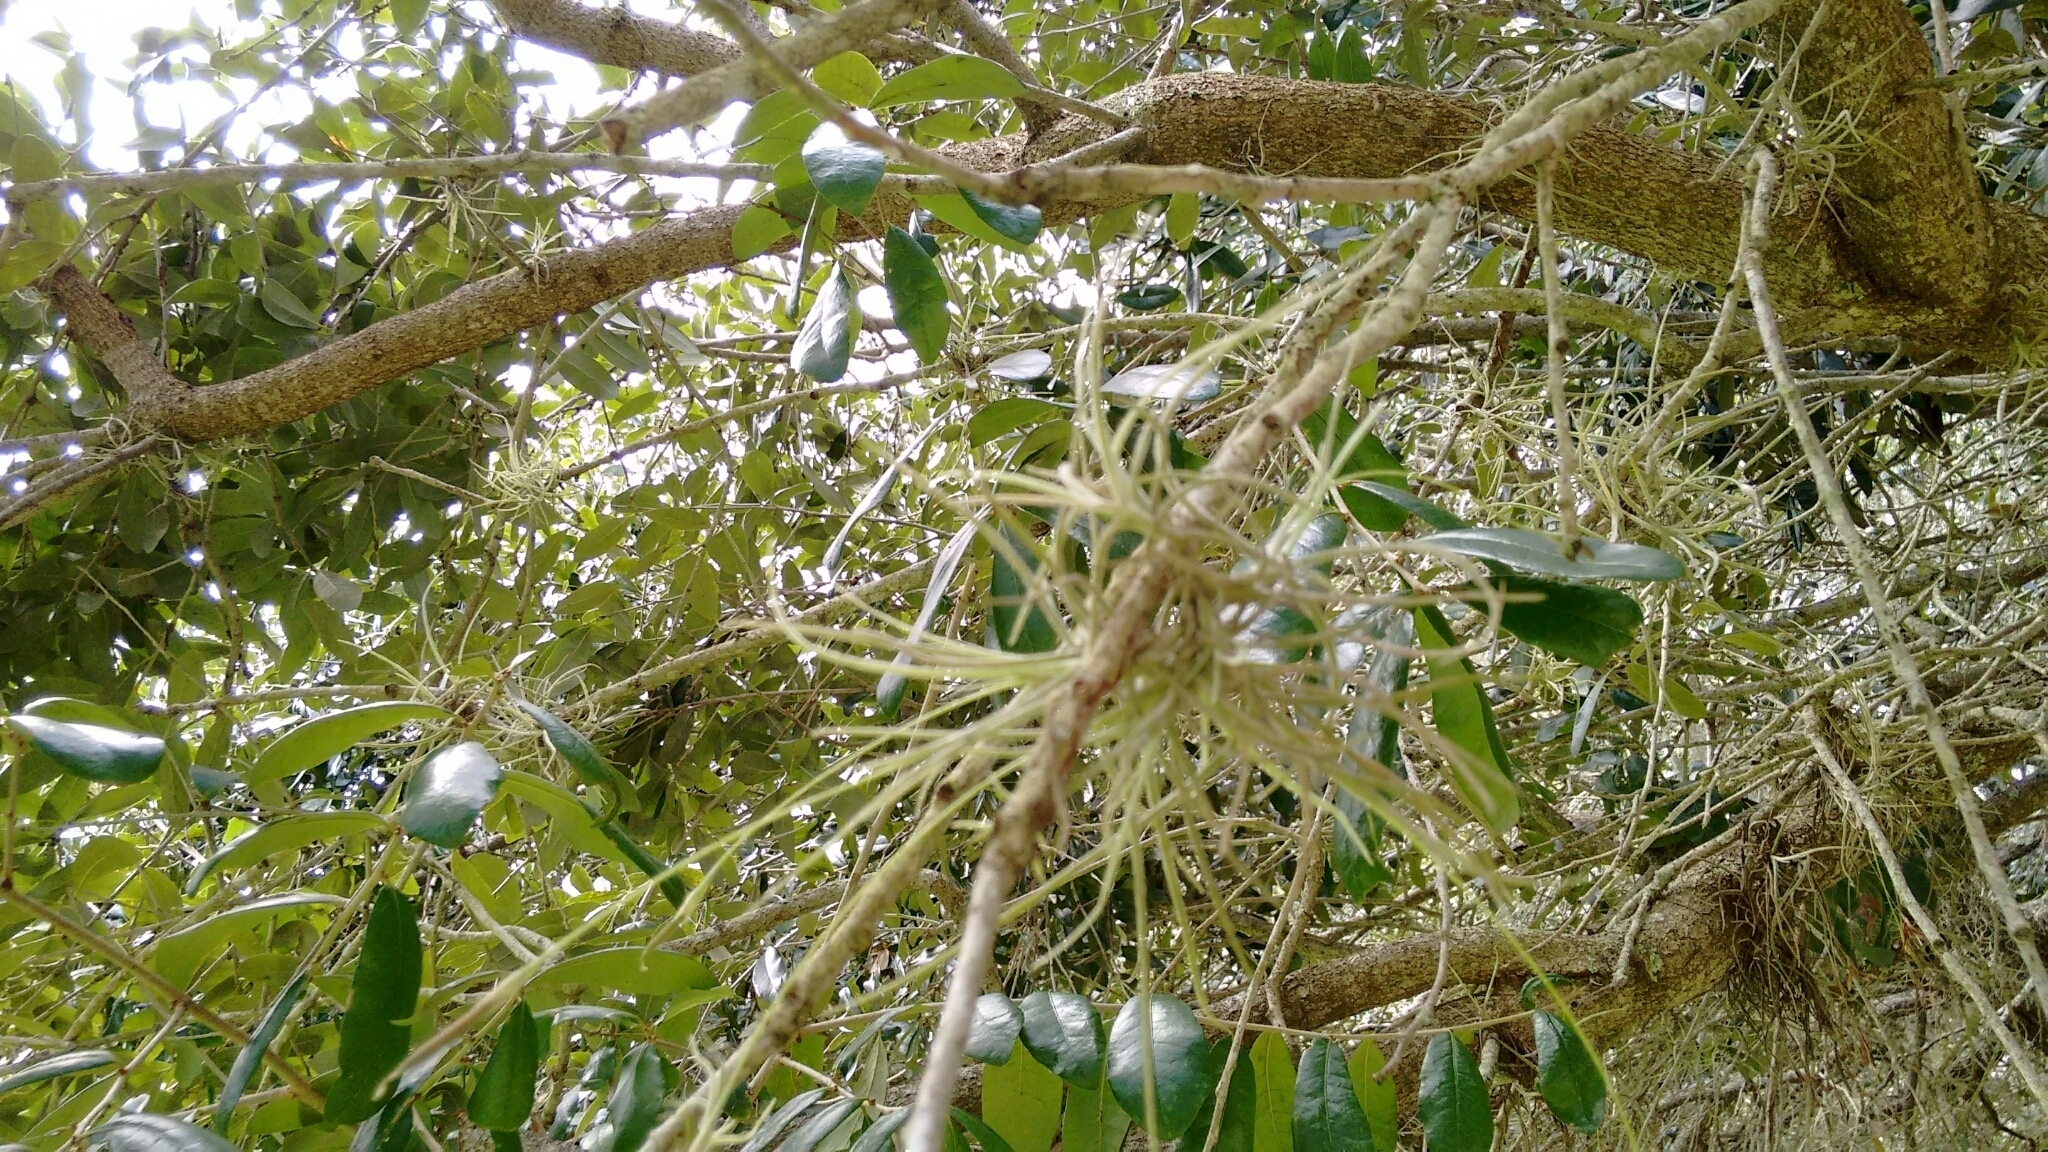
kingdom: Plantae
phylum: Tracheophyta
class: Liliopsida
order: Poales
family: Bromeliaceae
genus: Tillandsia
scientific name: Tillandsia recurvata
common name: Small ballmoss
